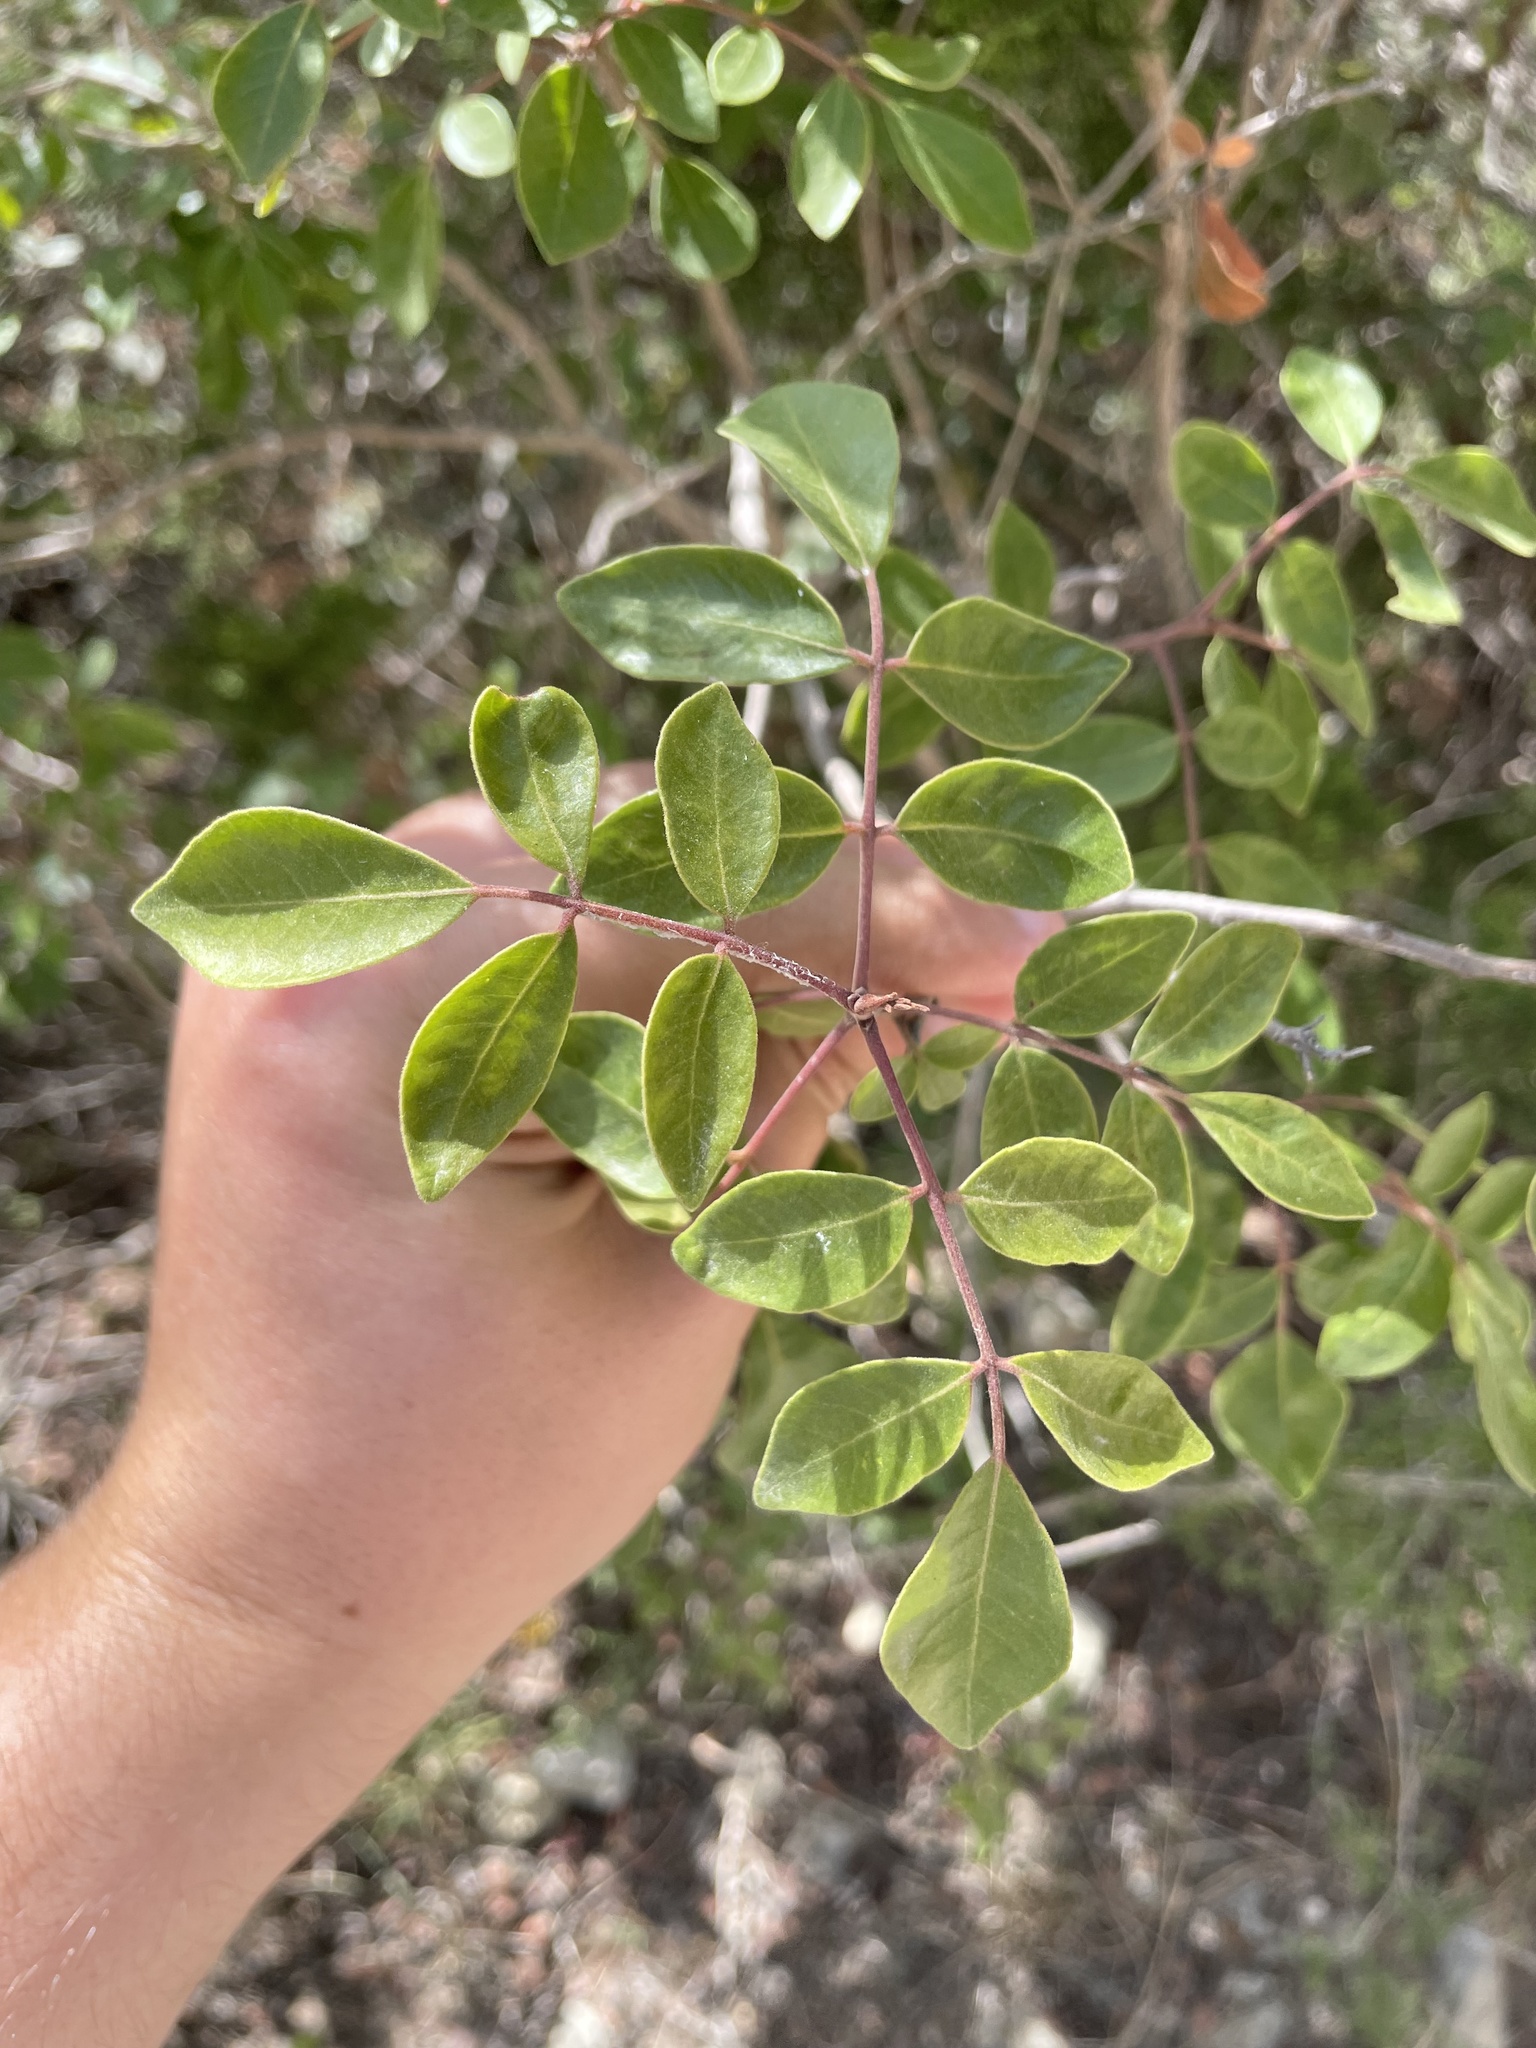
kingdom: Plantae
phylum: Tracheophyta
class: Magnoliopsida
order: Sapindales
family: Anacardiaceae
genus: Rhus
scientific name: Rhus virens
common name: Evergreen sumac
